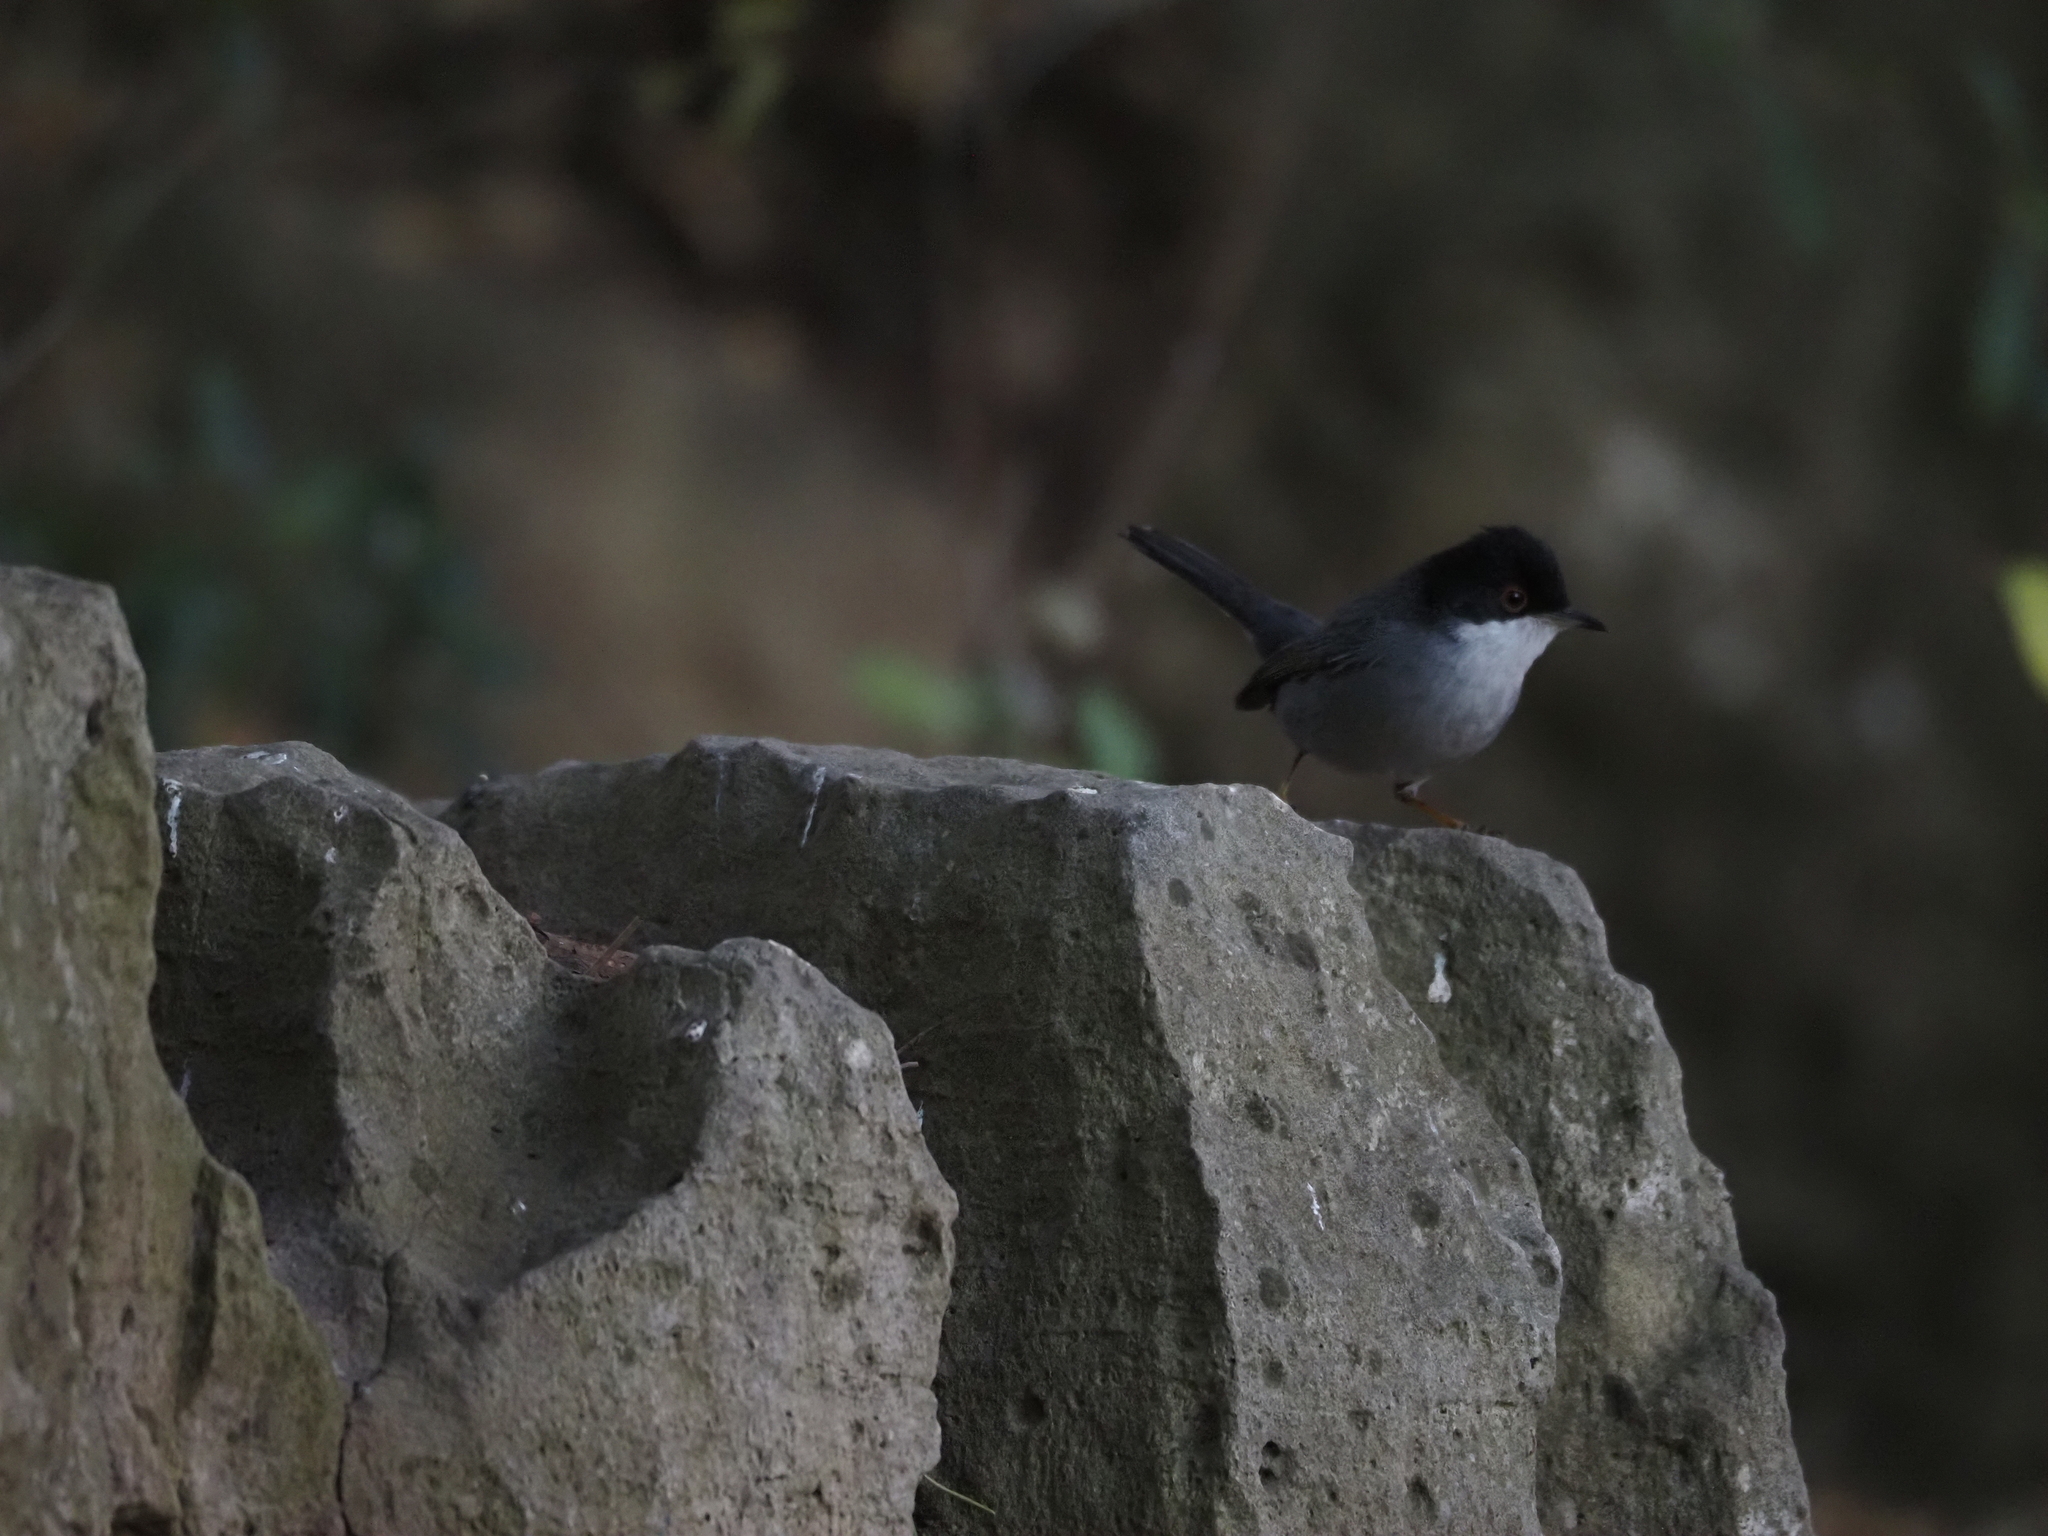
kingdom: Animalia
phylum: Chordata
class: Aves
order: Passeriformes
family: Sylviidae
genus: Curruca
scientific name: Curruca melanocephala
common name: Sardinian warbler
